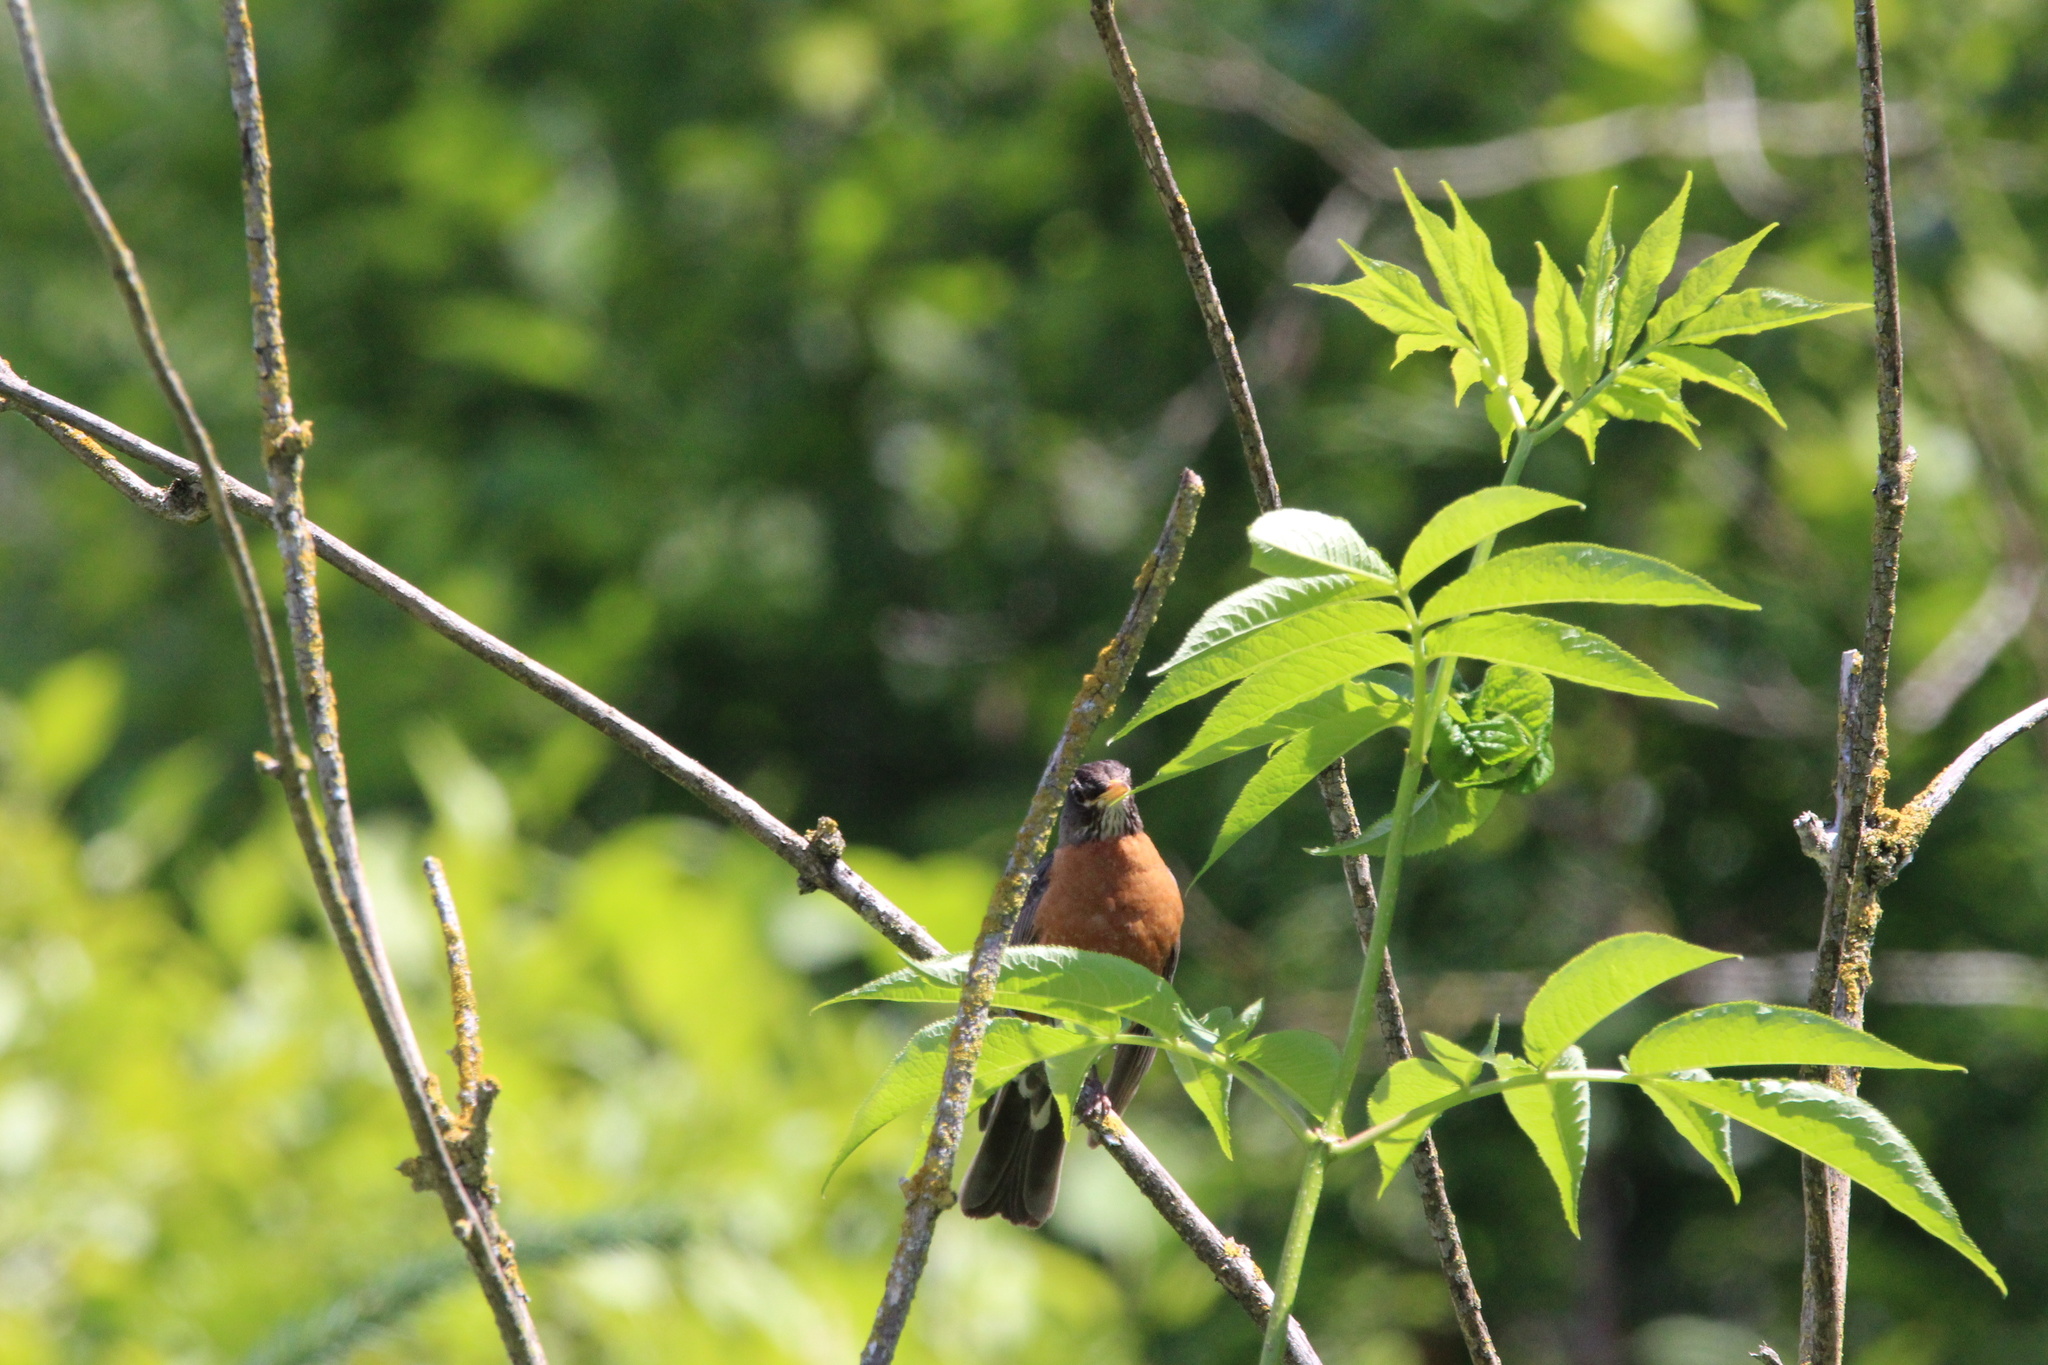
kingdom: Animalia
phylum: Chordata
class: Aves
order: Passeriformes
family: Turdidae
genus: Turdus
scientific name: Turdus migratorius
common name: American robin
